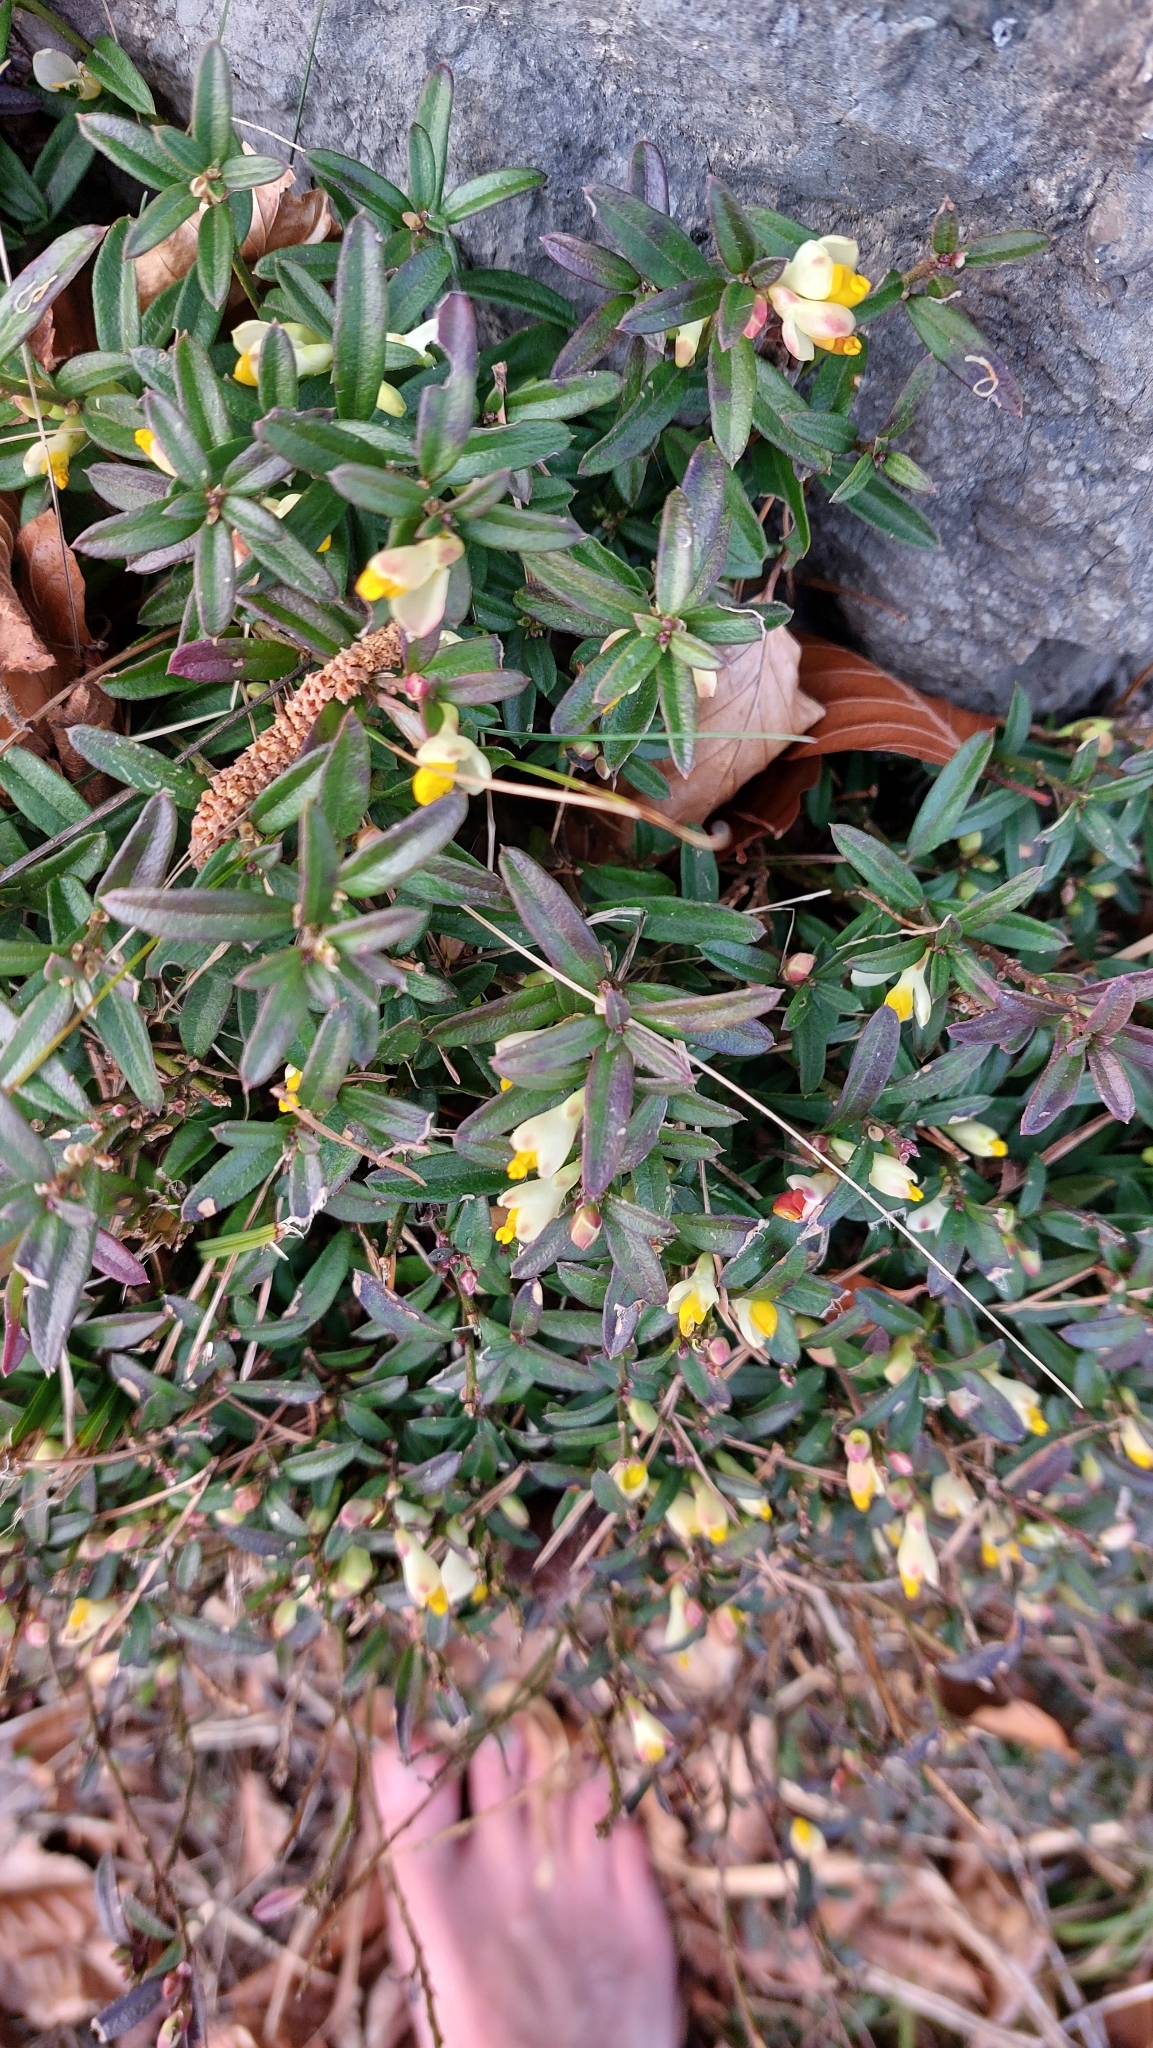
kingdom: Plantae
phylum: Tracheophyta
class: Magnoliopsida
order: Fabales
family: Polygalaceae
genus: Polygaloides
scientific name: Polygaloides chamaebuxus
